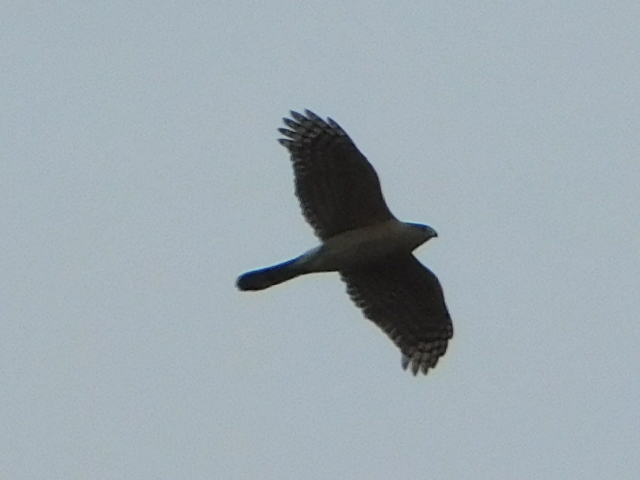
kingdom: Animalia
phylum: Chordata
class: Aves
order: Accipitriformes
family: Accipitridae
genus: Accipiter
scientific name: Accipiter cooperii
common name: Cooper's hawk
